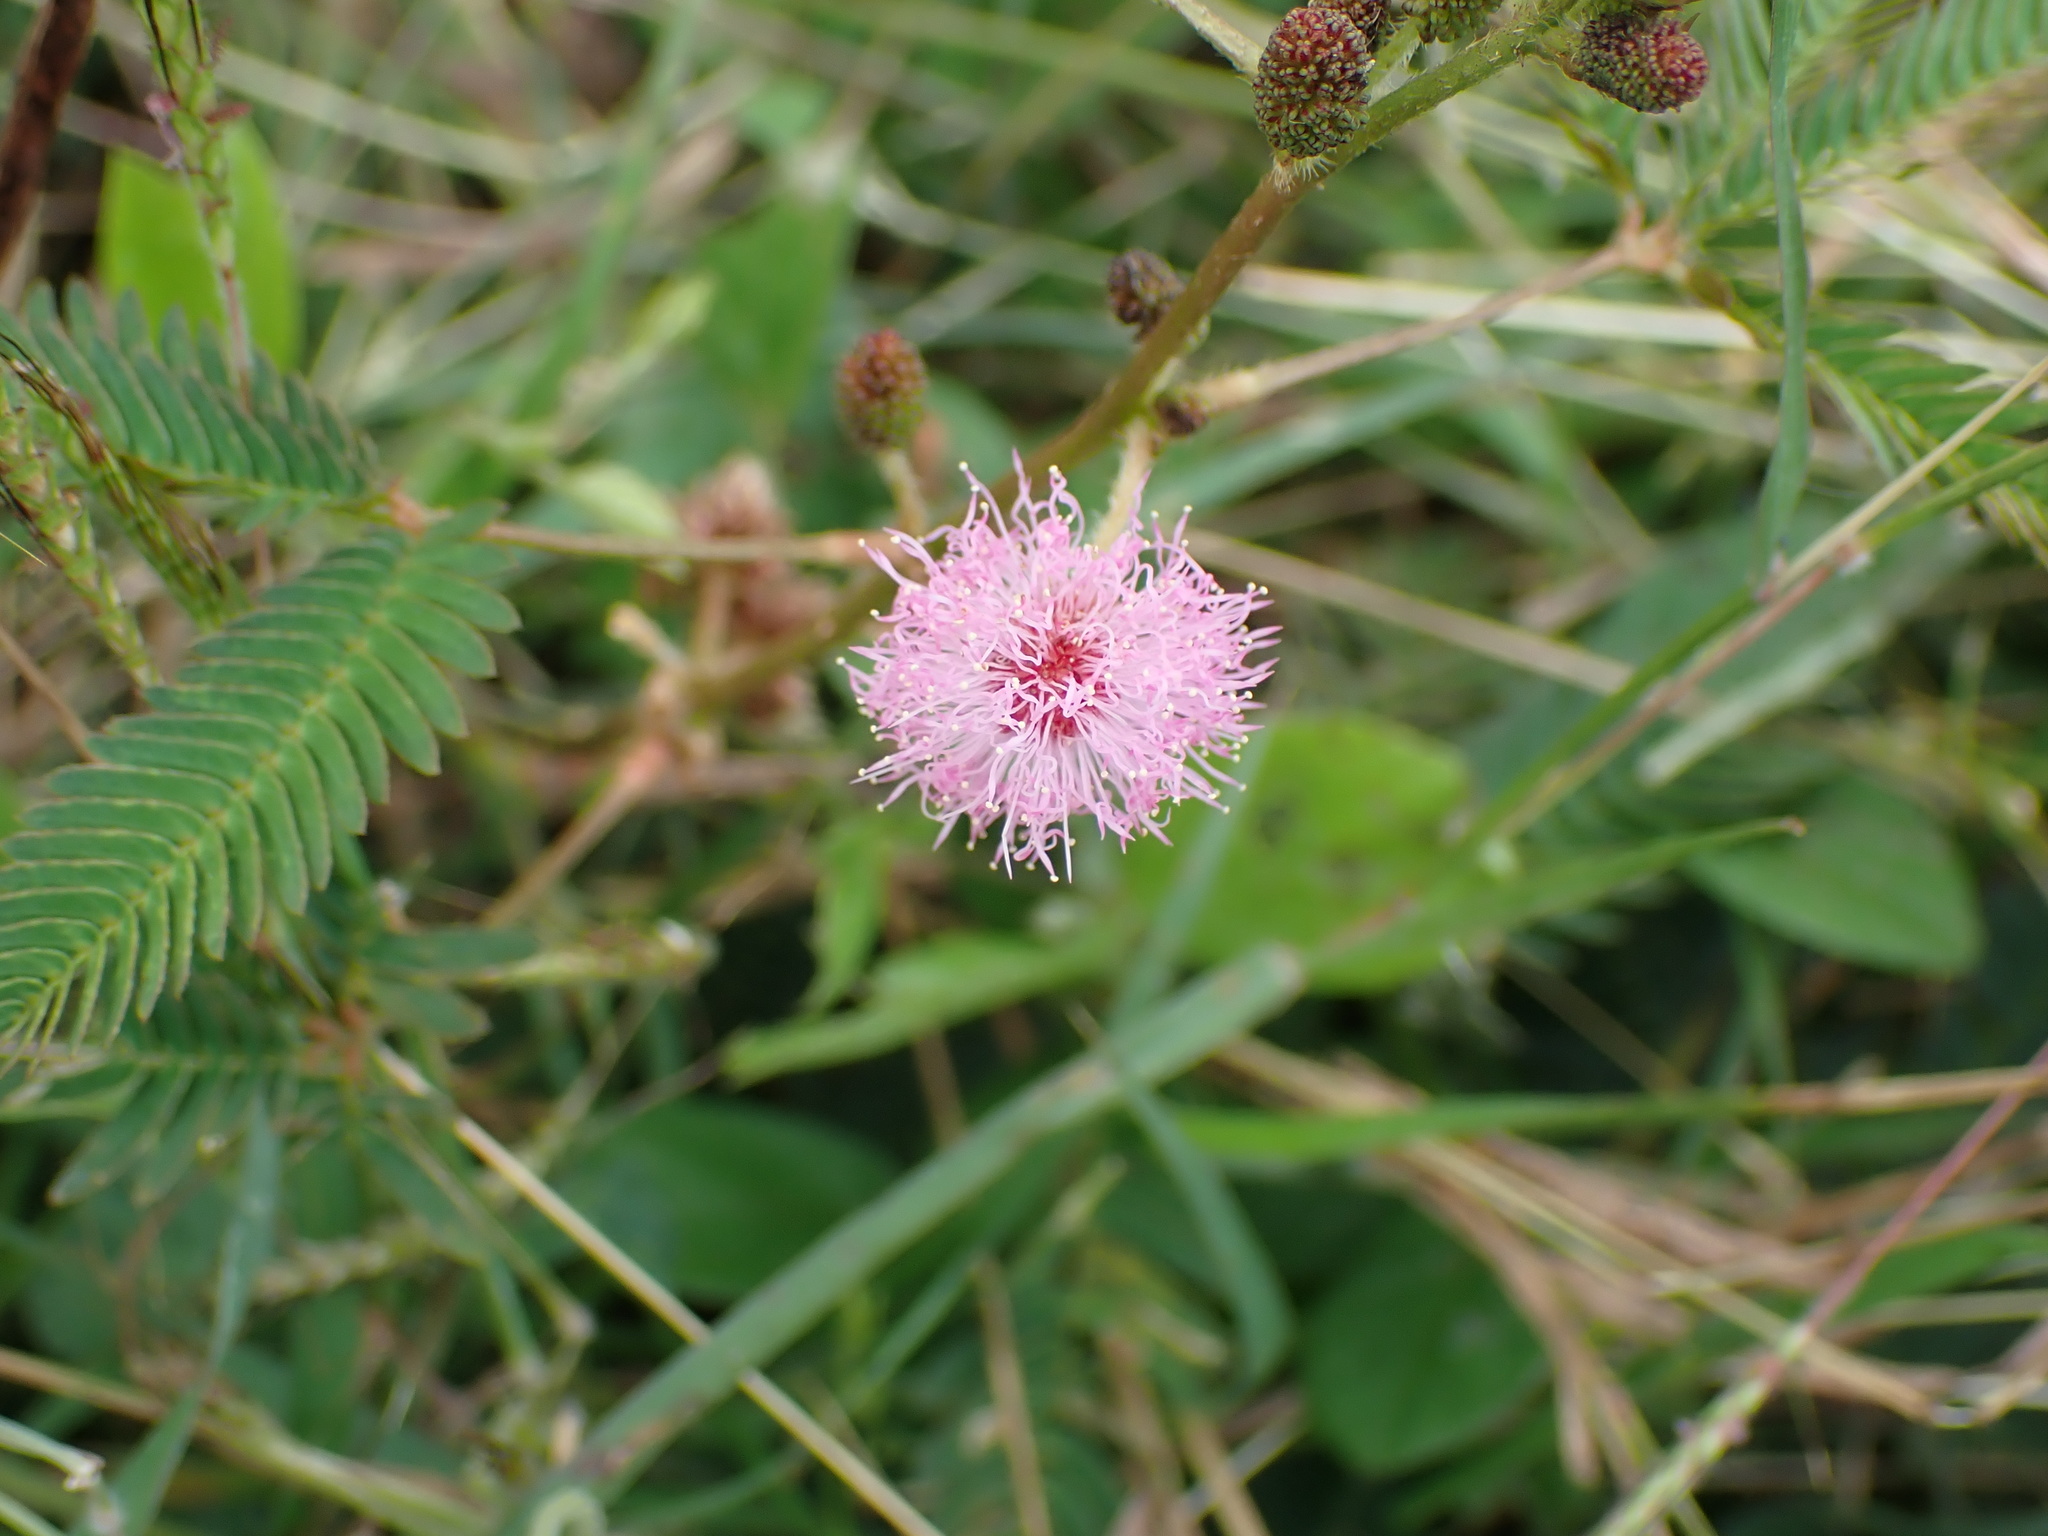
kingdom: Plantae
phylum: Tracheophyta
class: Magnoliopsida
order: Fabales
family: Fabaceae
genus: Mimosa
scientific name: Mimosa pudica
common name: Sensitive plant
